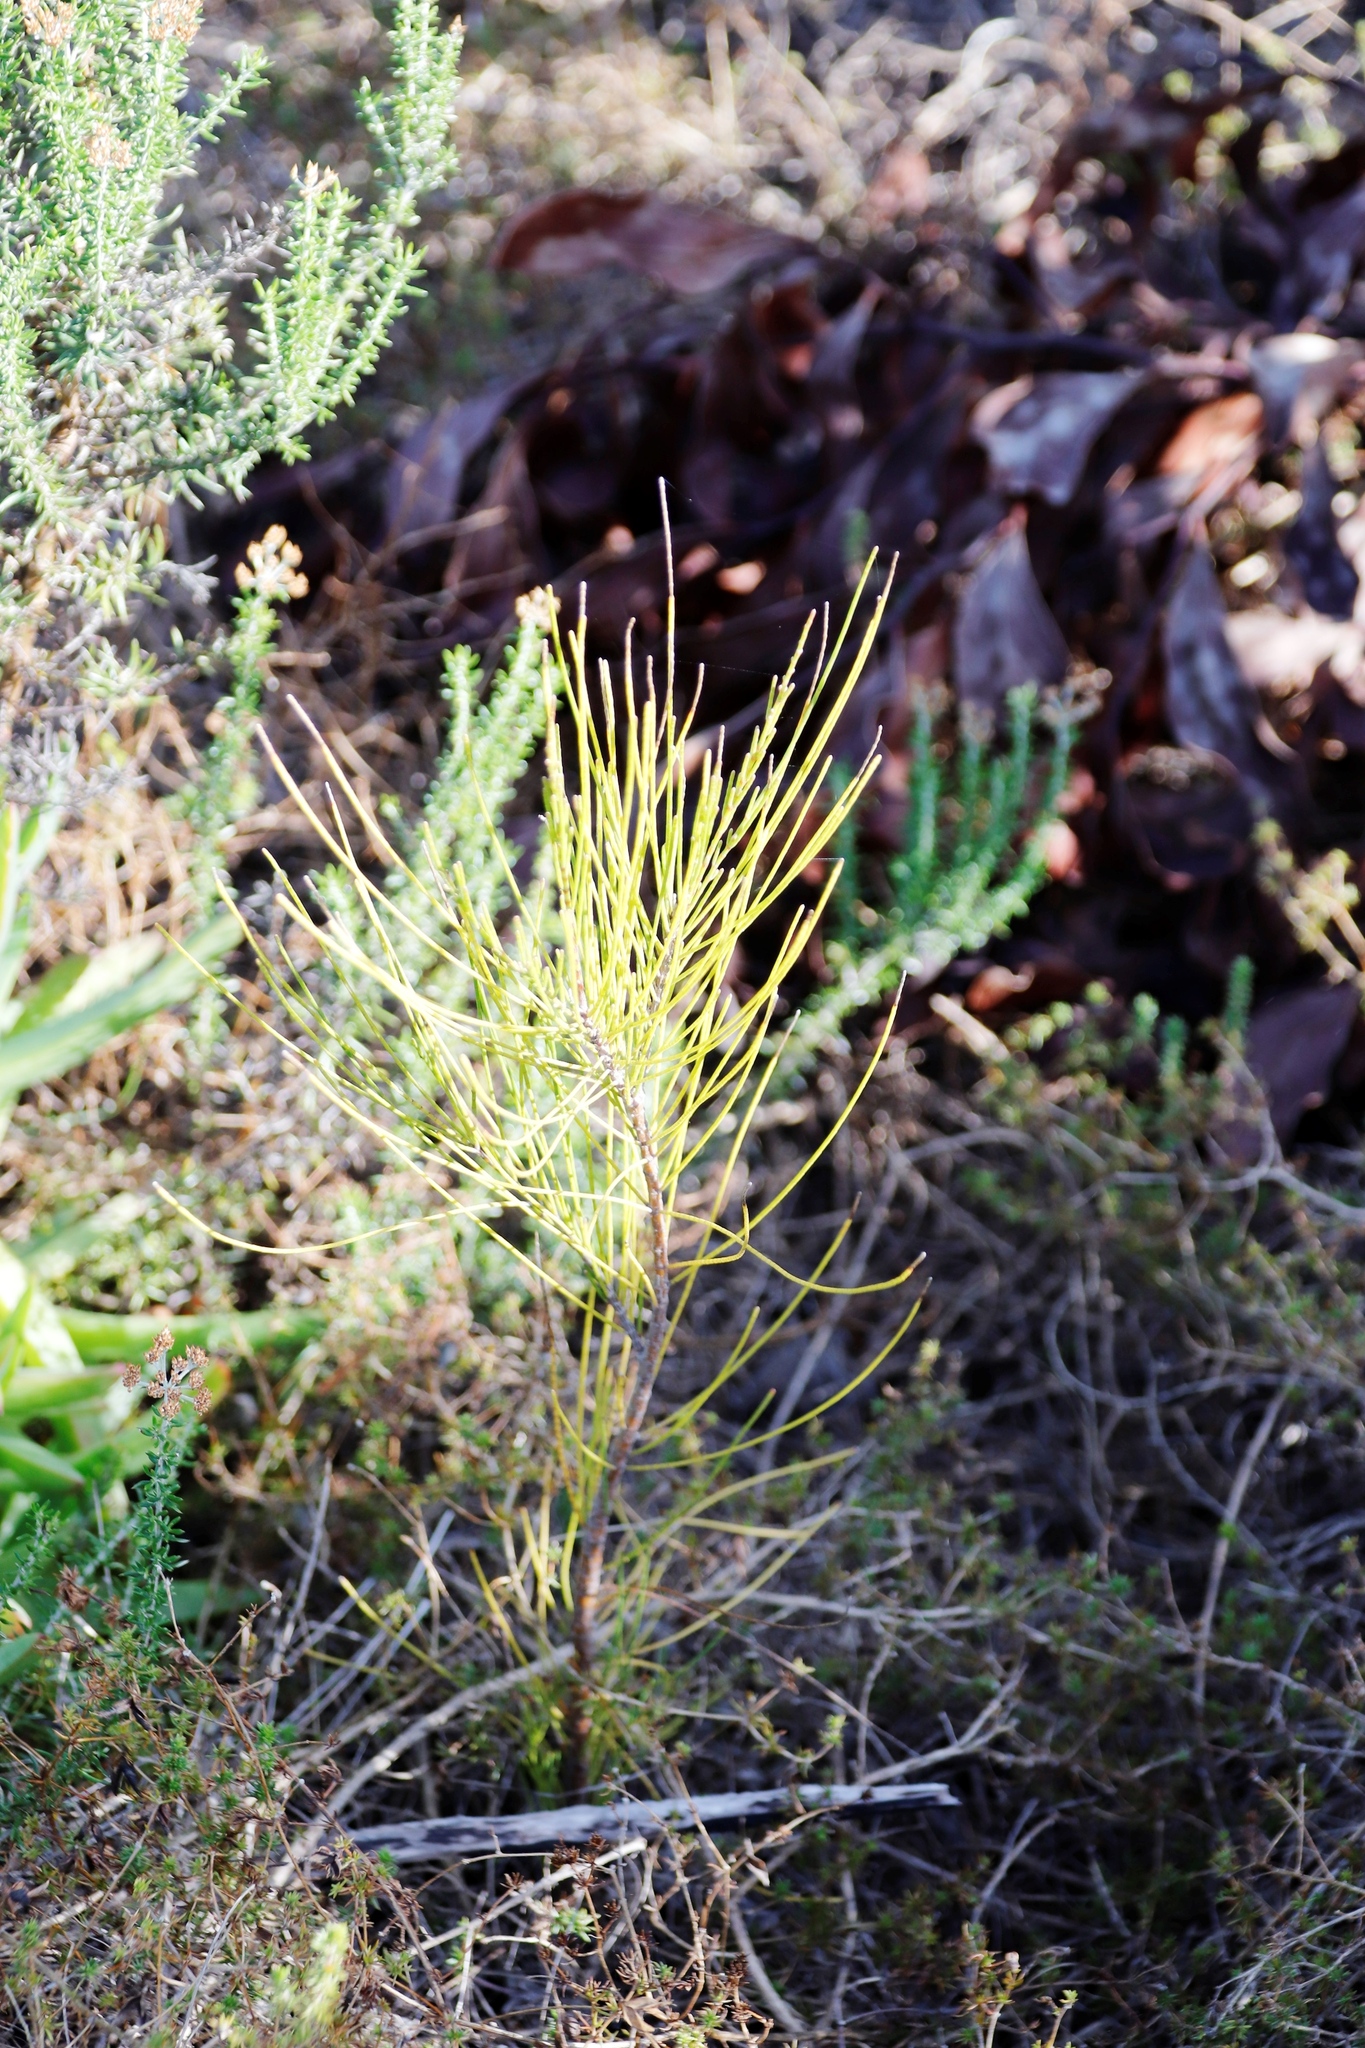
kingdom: Plantae
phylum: Tracheophyta
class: Magnoliopsida
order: Fagales
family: Casuarinaceae
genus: Casuarina
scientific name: Casuarina cunninghamiana
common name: River sheoak
